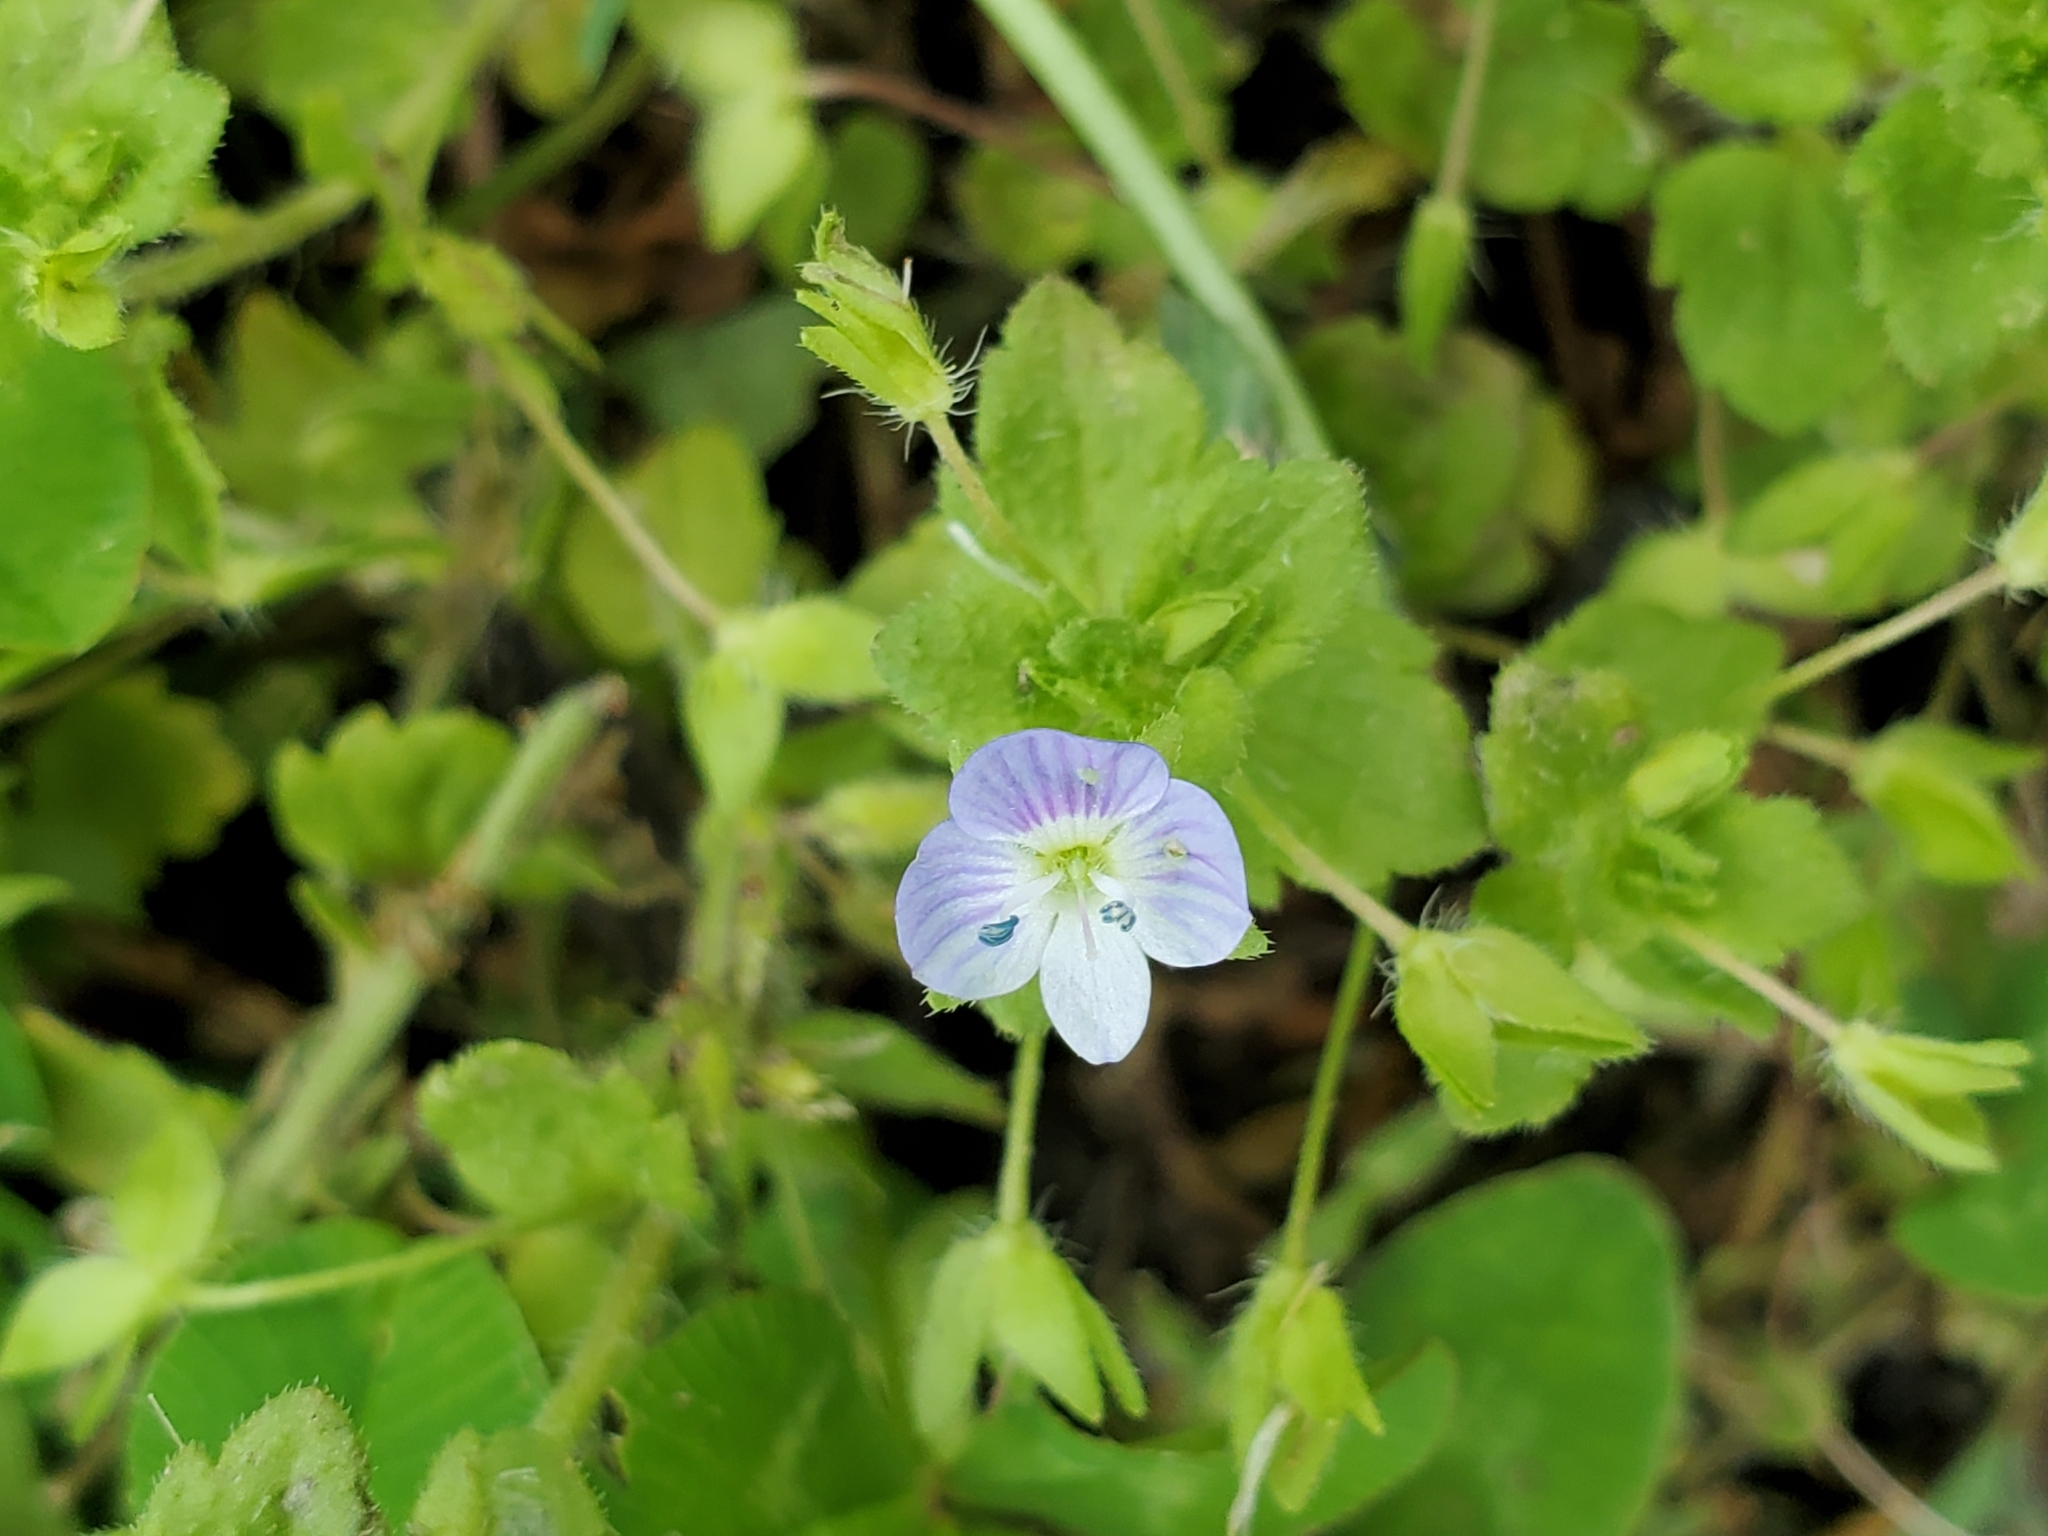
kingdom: Plantae
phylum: Tracheophyta
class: Magnoliopsida
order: Lamiales
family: Plantaginaceae
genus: Veronica
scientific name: Veronica persica
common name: Common field-speedwell
